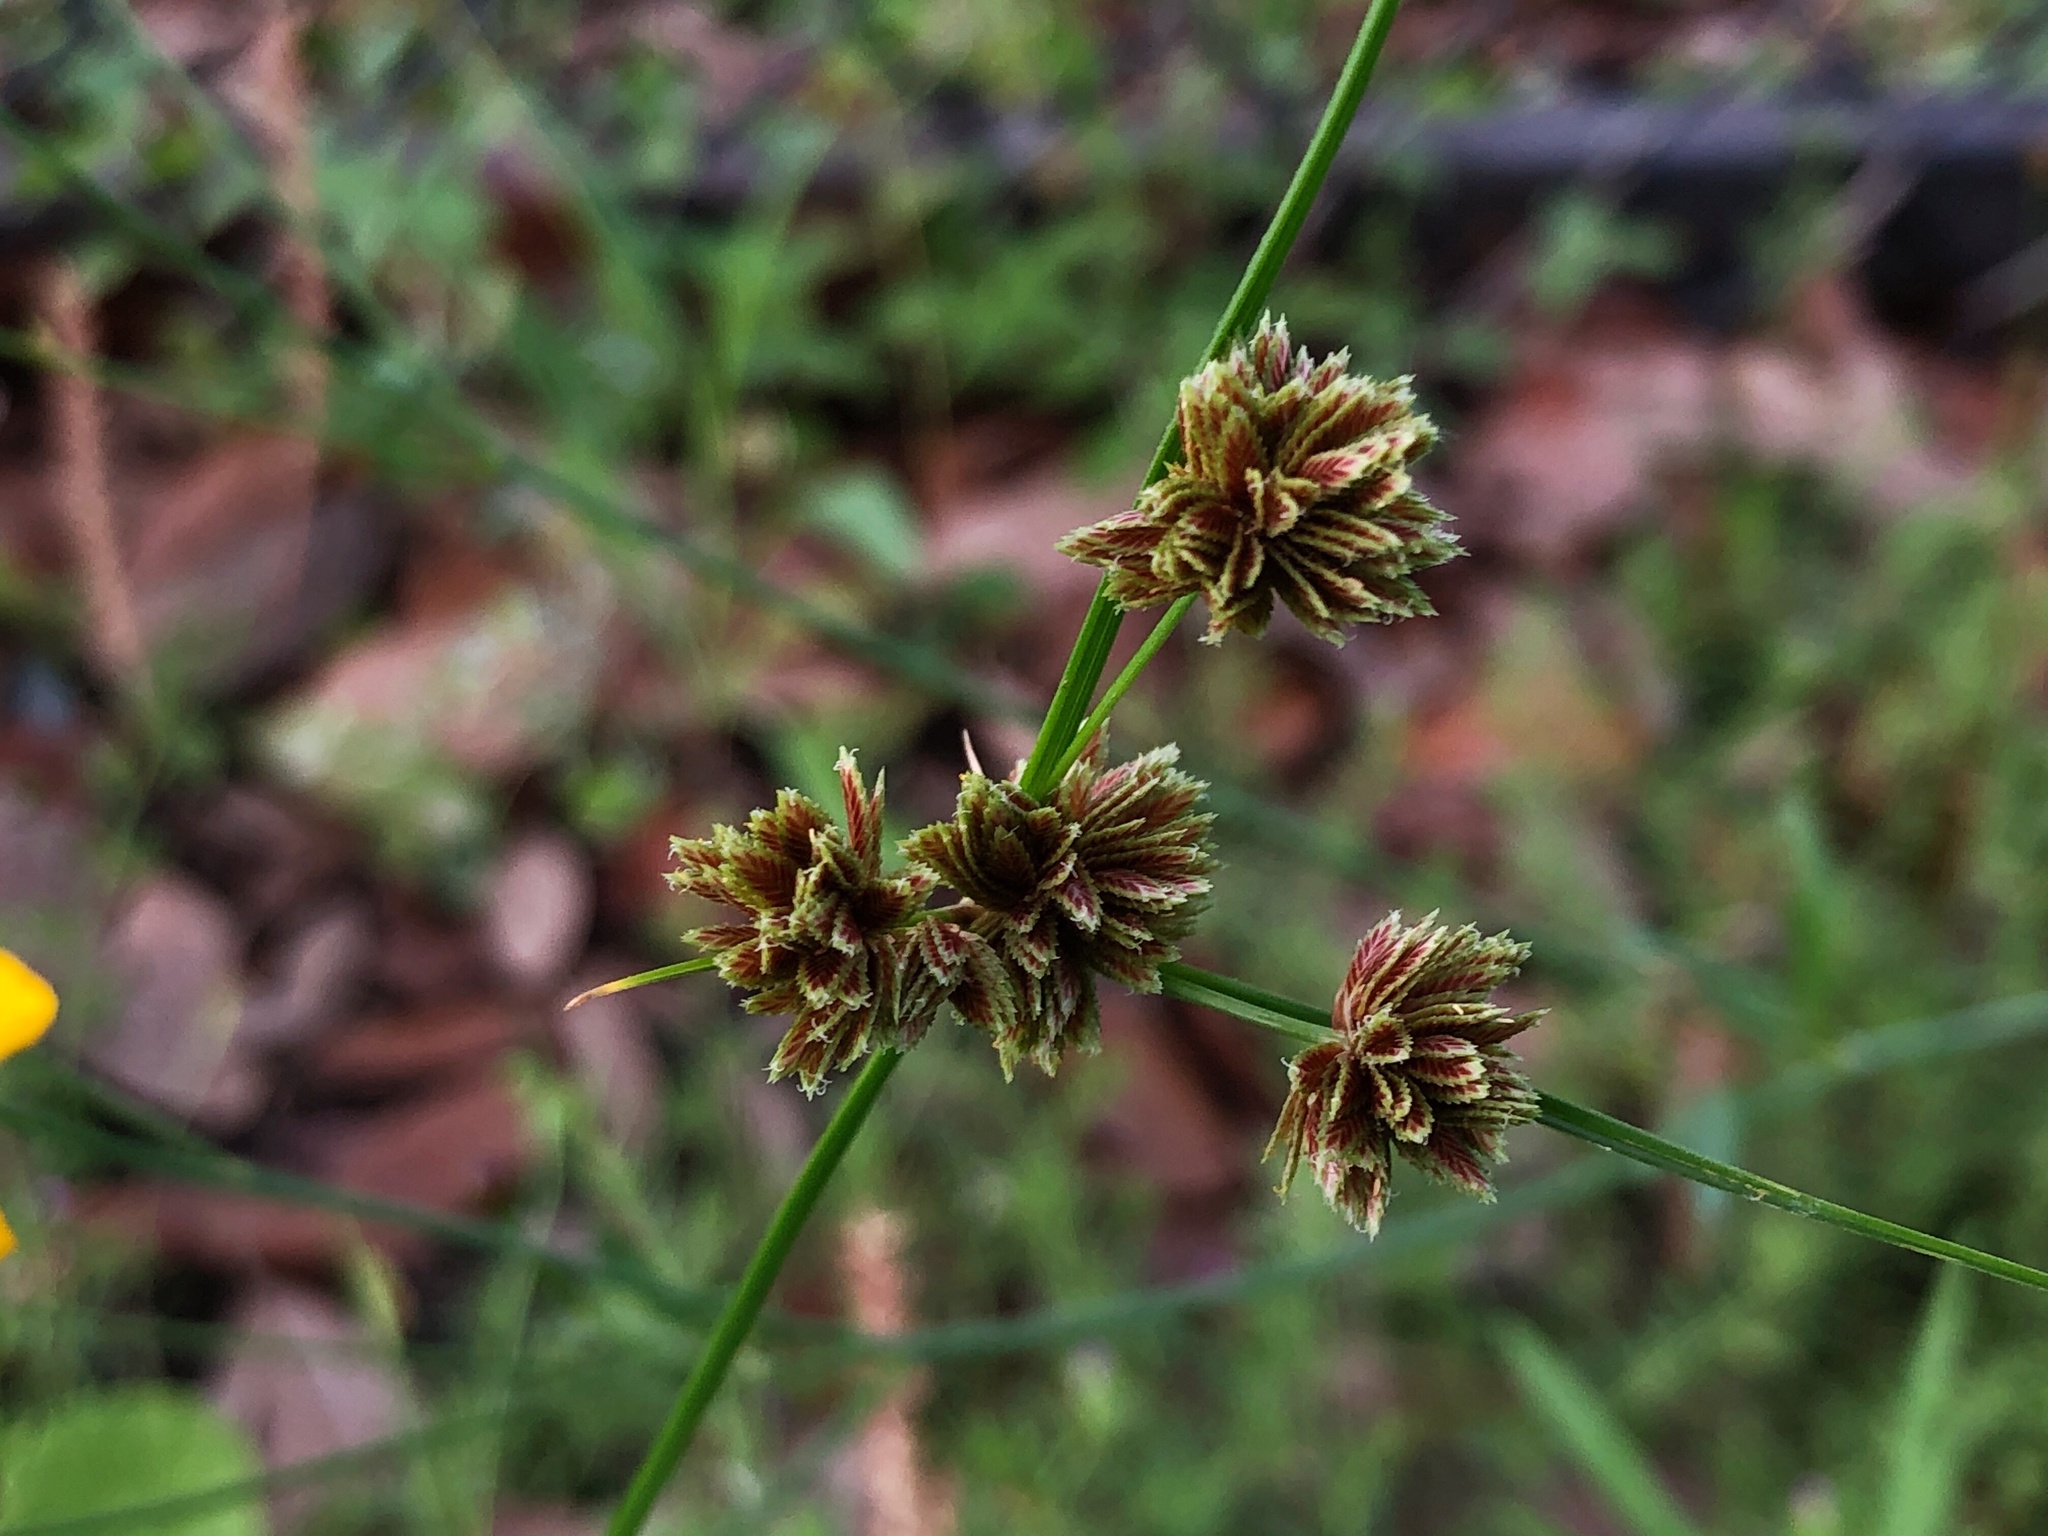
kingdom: Plantae
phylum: Tracheophyta
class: Liliopsida
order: Poales
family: Cyperaceae
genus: Cyperus
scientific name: Cyperus reflexus
